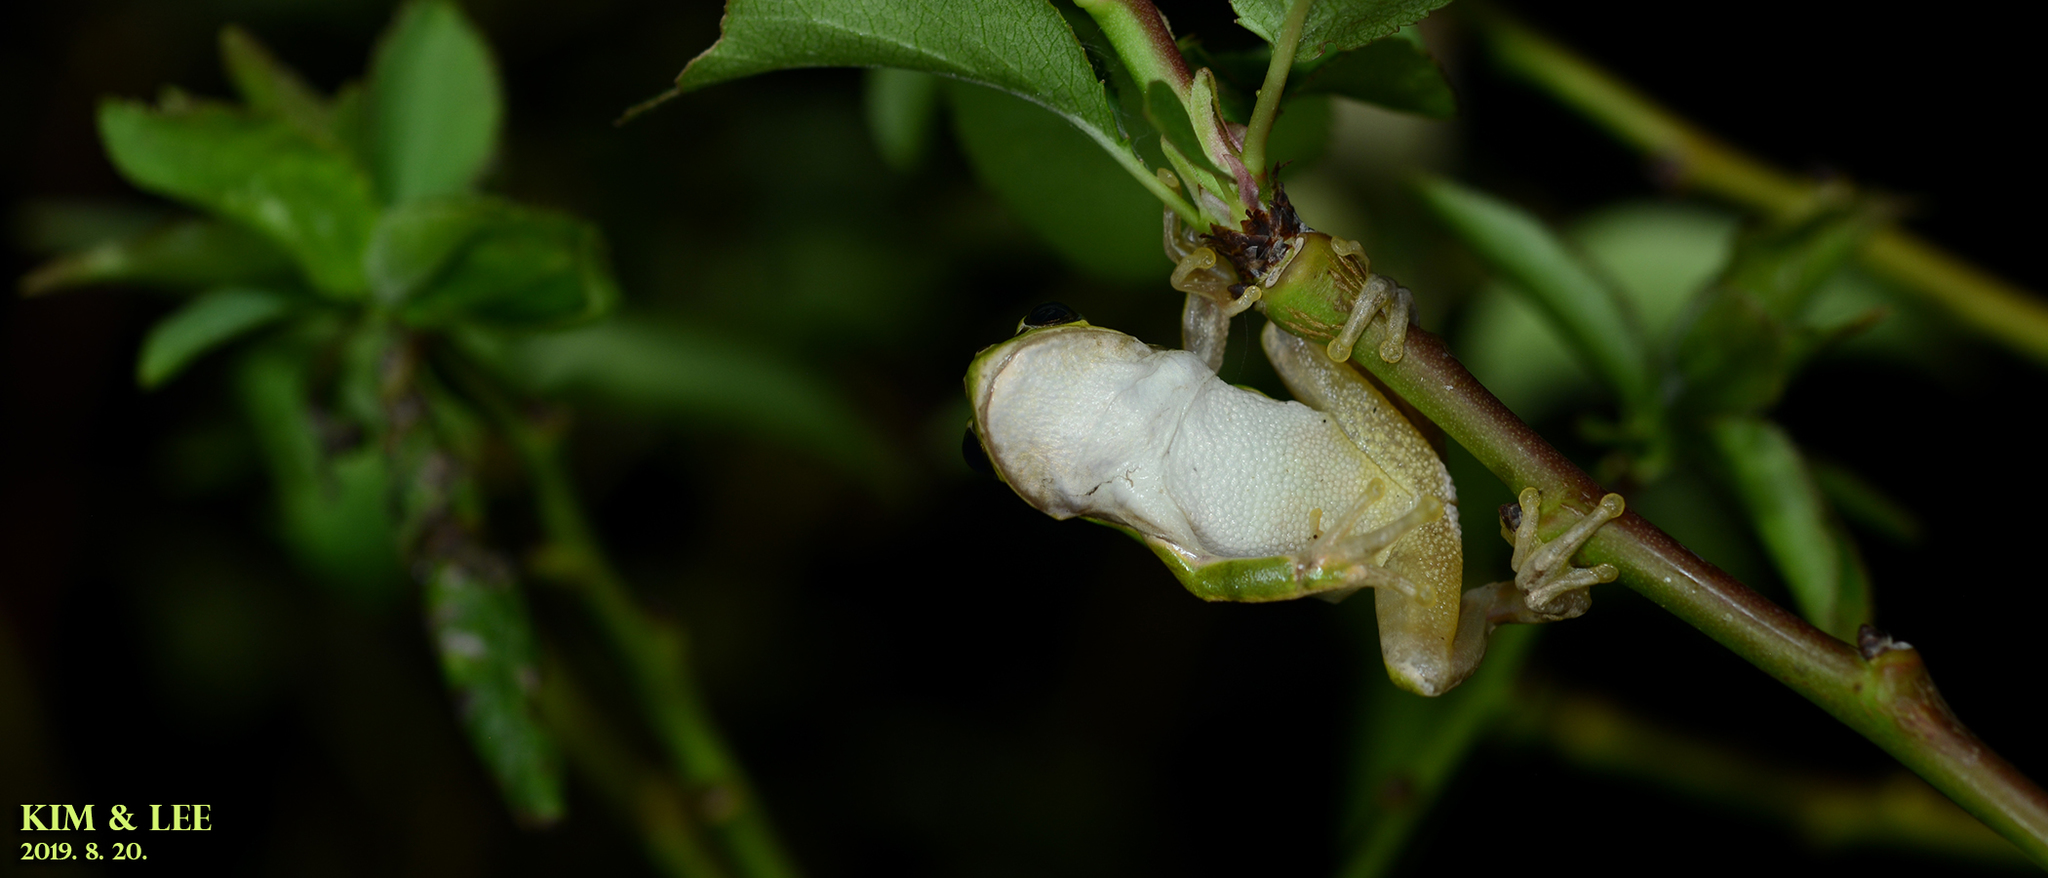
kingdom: Animalia
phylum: Chordata
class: Amphibia
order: Anura
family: Hylidae
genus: Dryophytes
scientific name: Dryophytes japonicus
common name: Japanese treefrog
